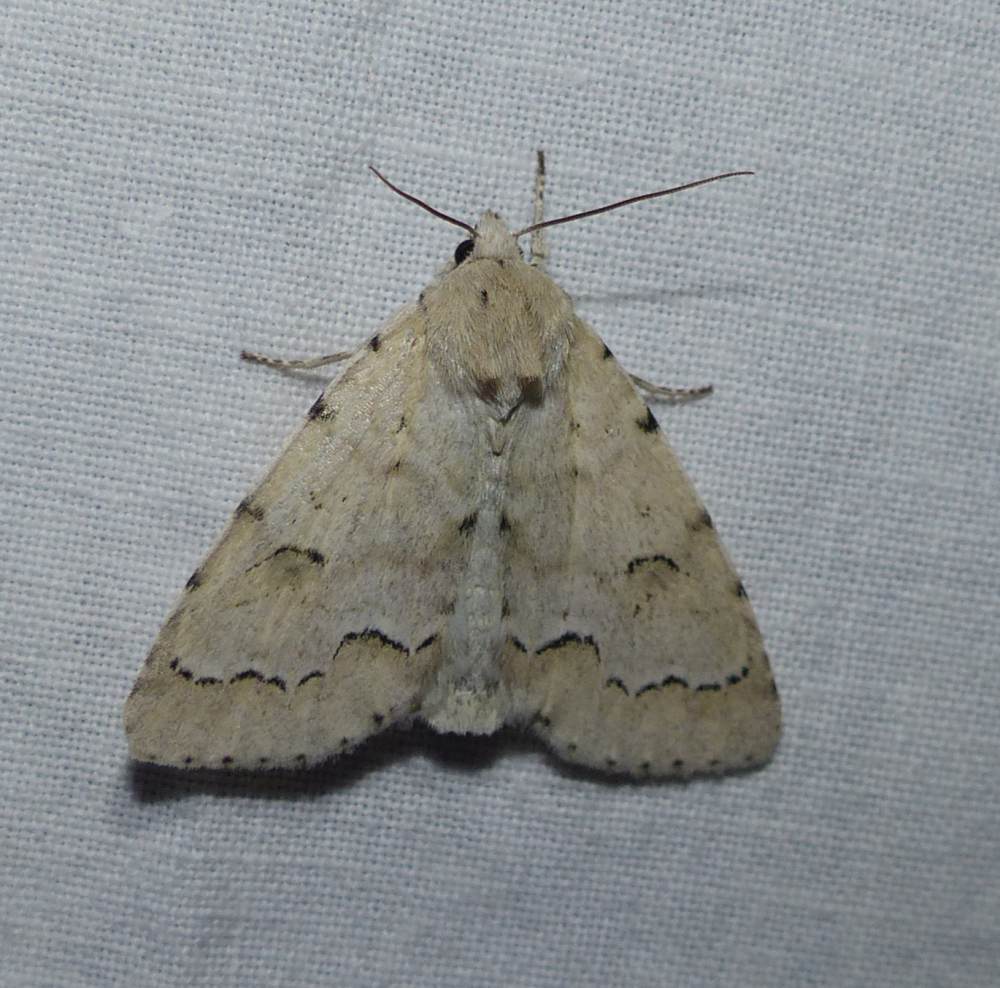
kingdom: Animalia
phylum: Arthropoda
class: Insecta
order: Lepidoptera
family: Noctuidae
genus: Acronicta
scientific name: Acronicta innotata
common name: Unmarked dagger
